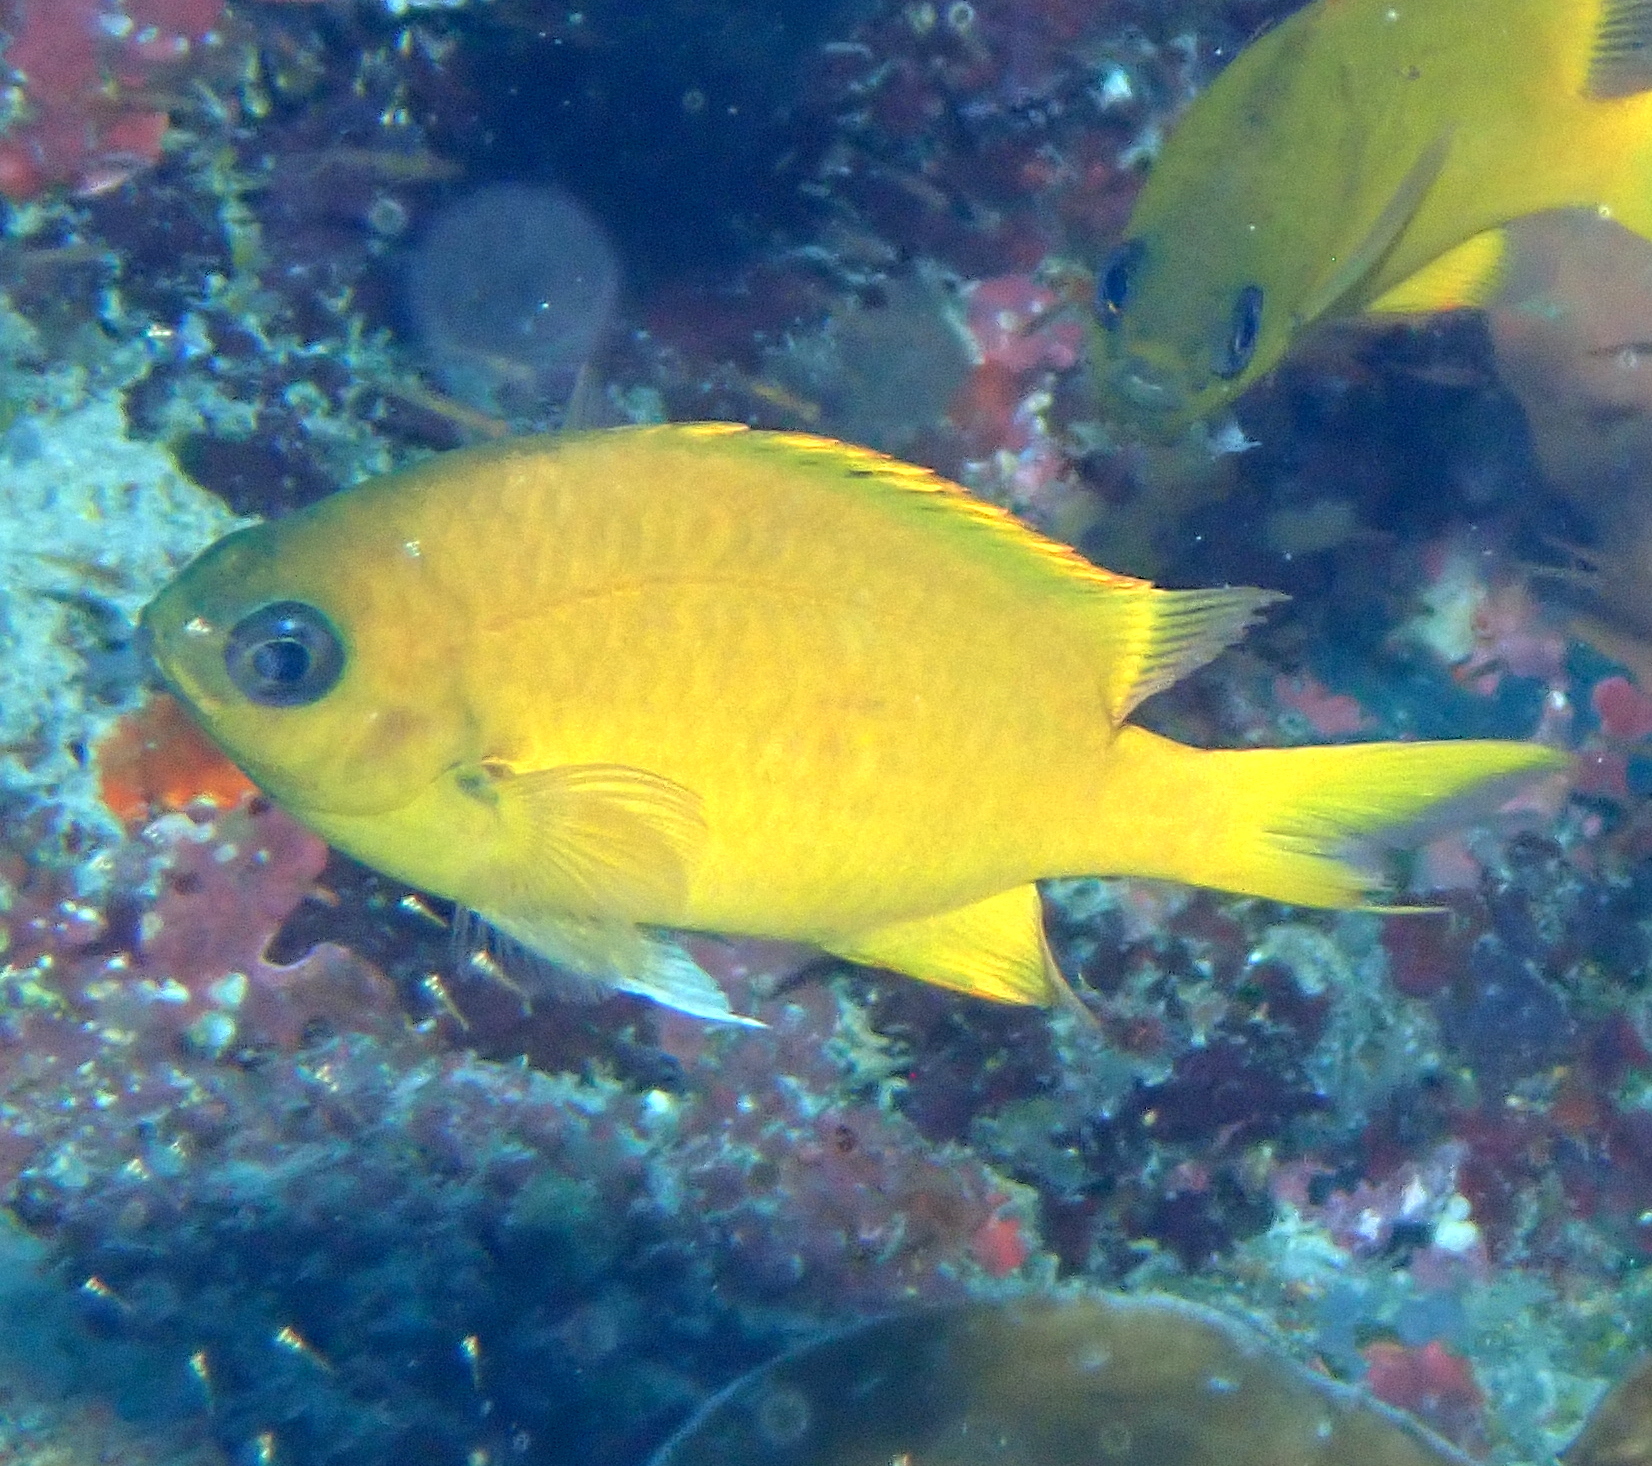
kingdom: Animalia
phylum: Chordata
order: Perciformes
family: Pomacentridae
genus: Chromis
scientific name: Chromis analis
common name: Yellow chromis
